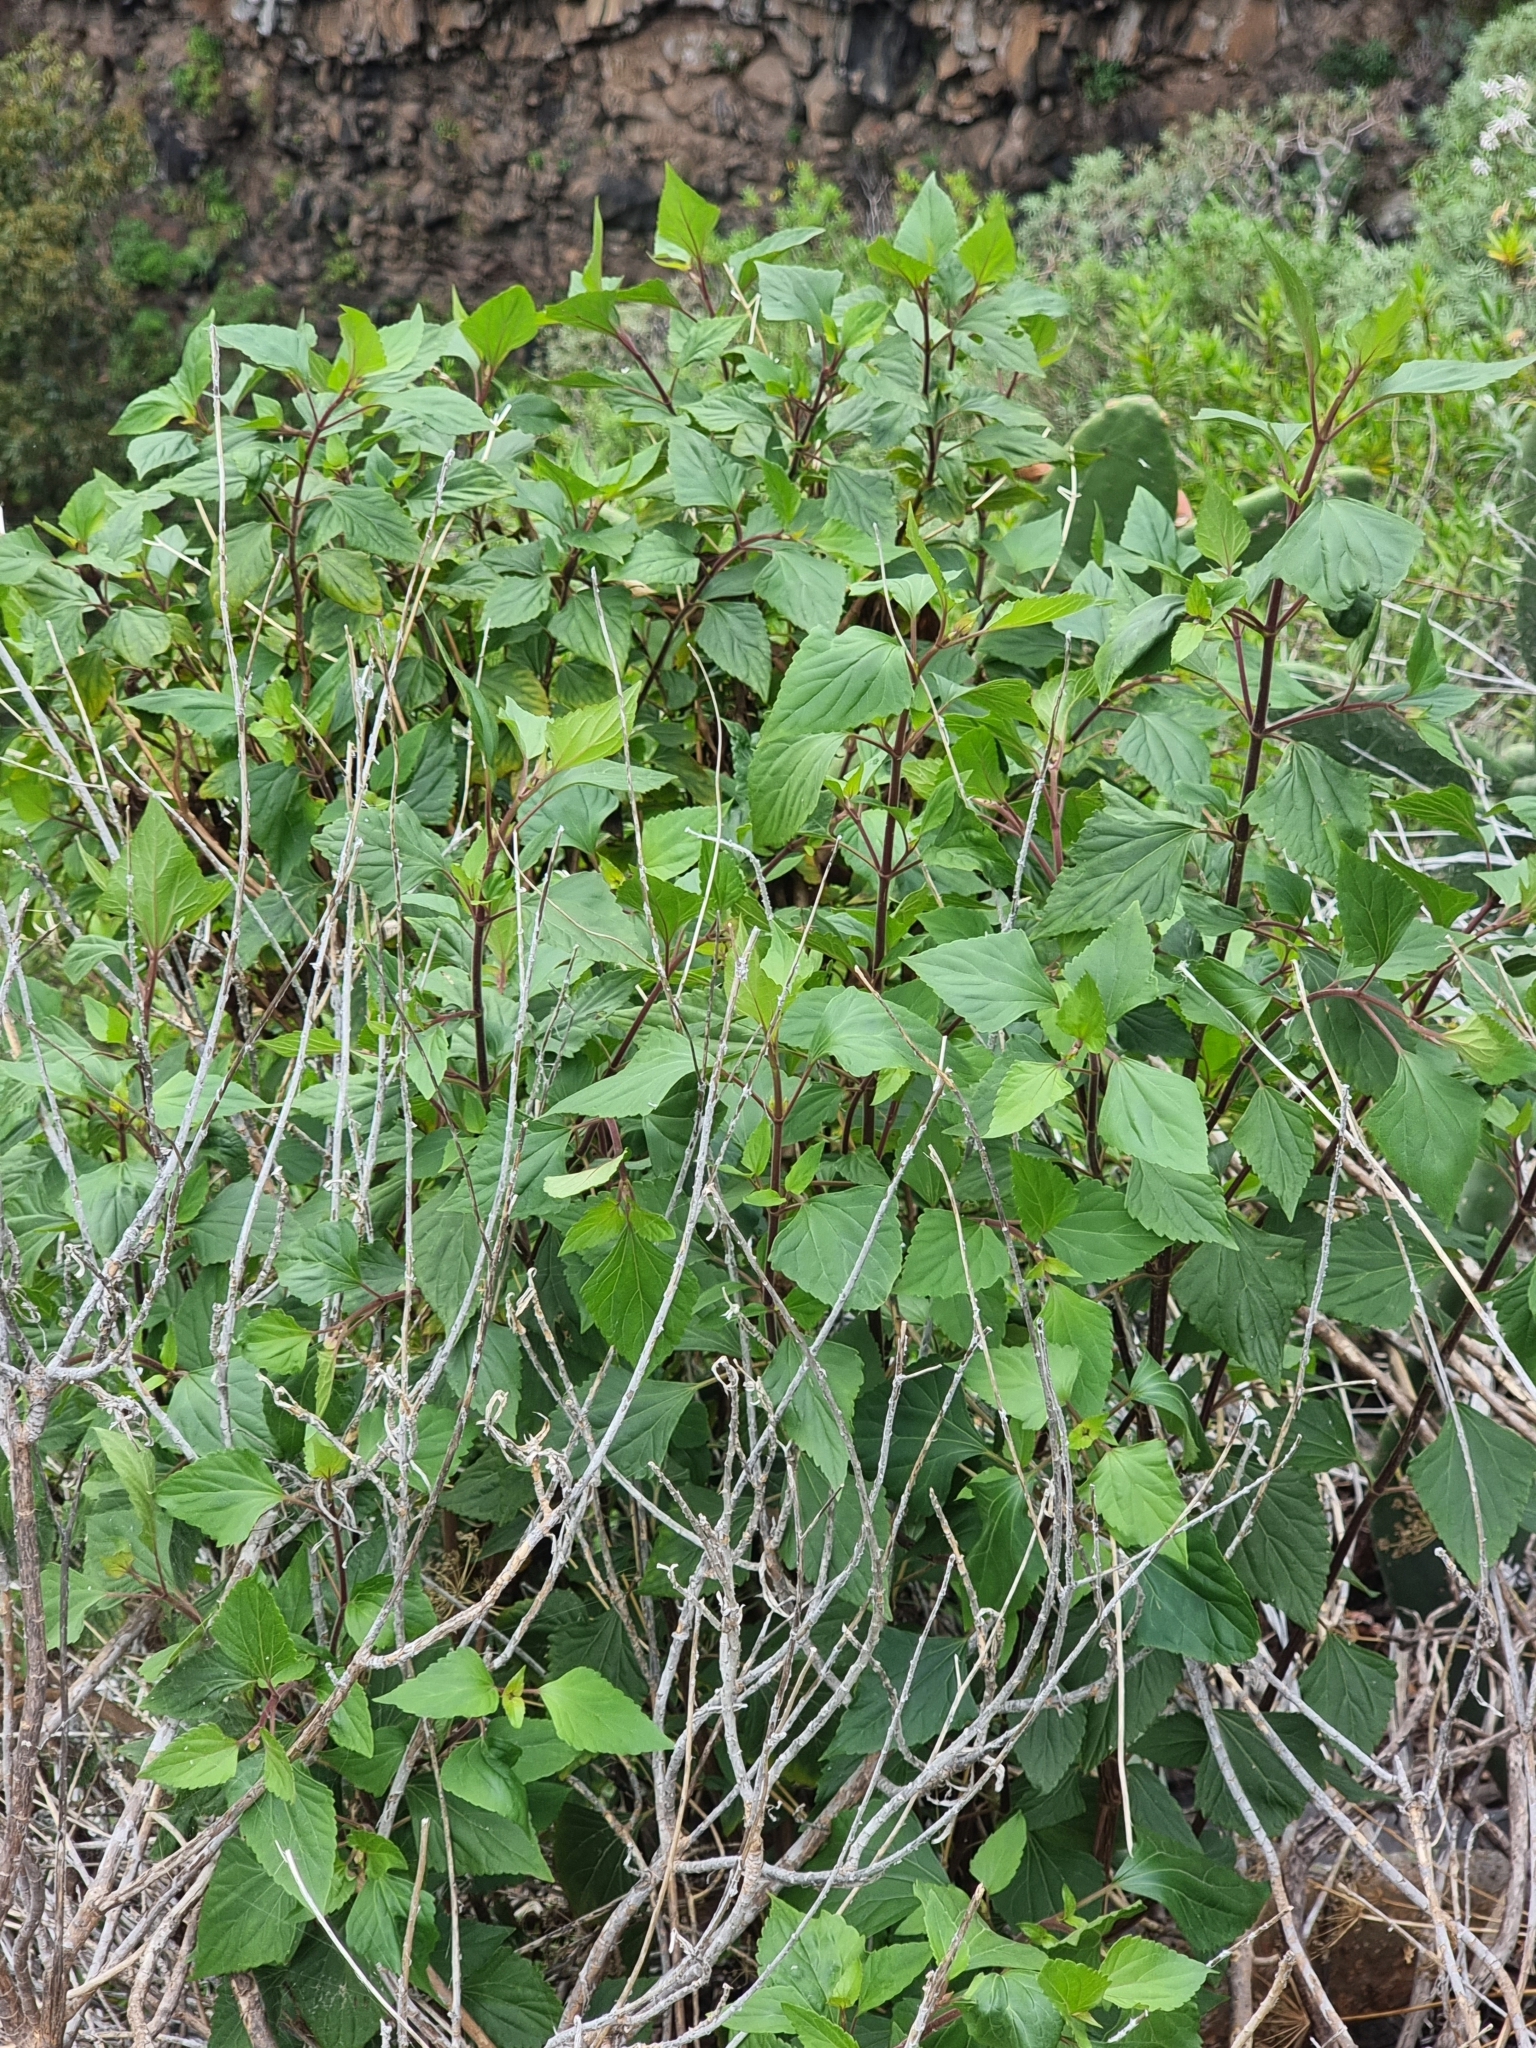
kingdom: Plantae
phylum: Tracheophyta
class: Magnoliopsida
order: Asterales
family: Asteraceae
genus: Ageratina
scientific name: Ageratina adenophora
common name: Sticky snakeroot
